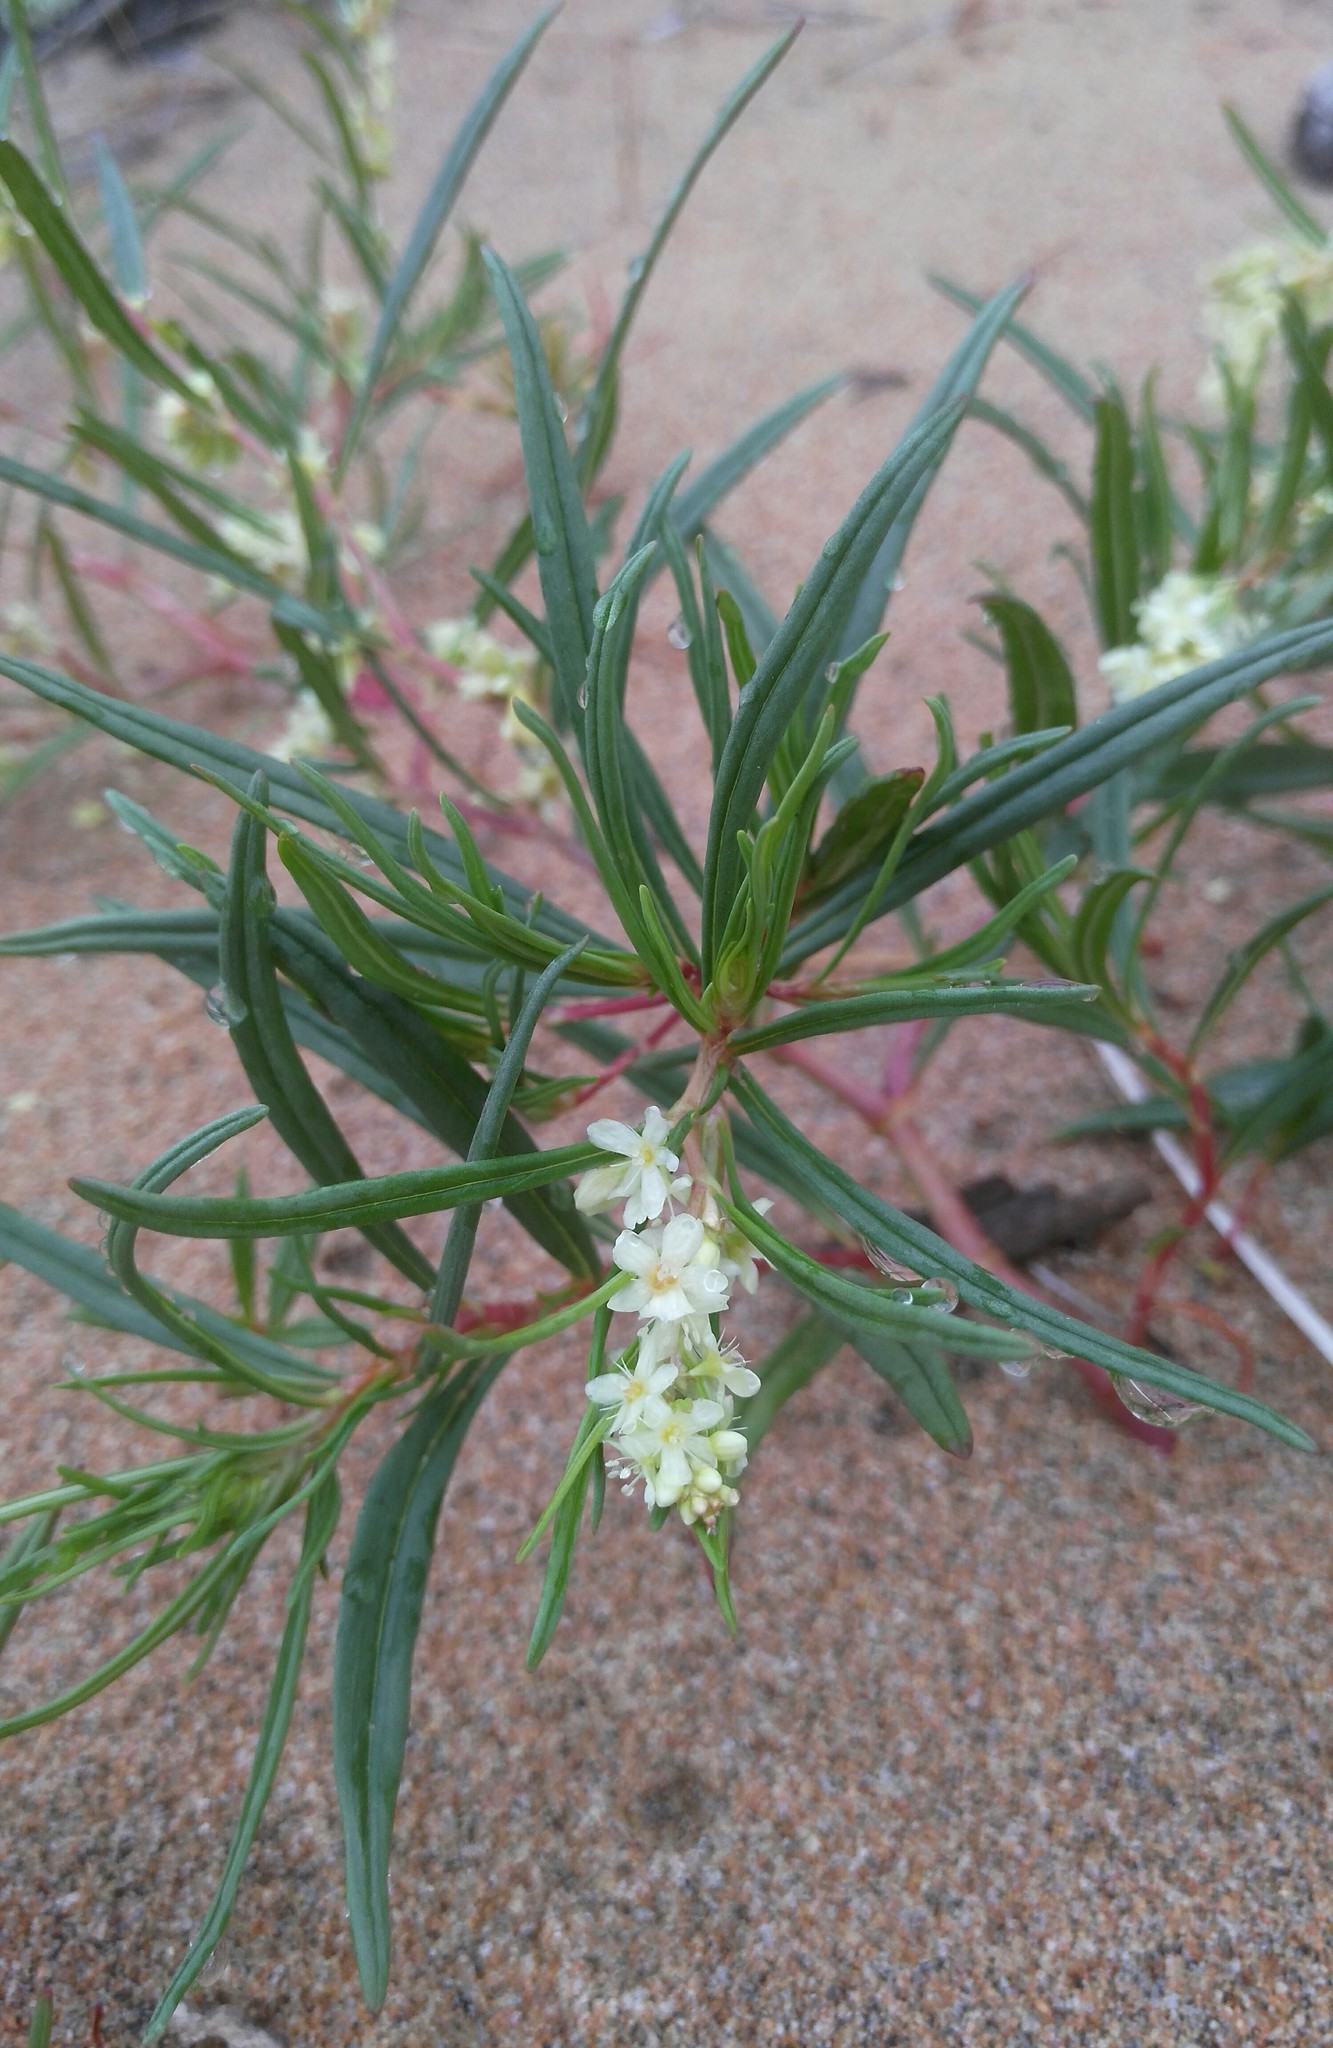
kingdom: Plantae
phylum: Tracheophyta
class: Magnoliopsida
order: Caryophyllales
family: Polygonaceae
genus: Koenigia
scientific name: Koenigia ocreata
